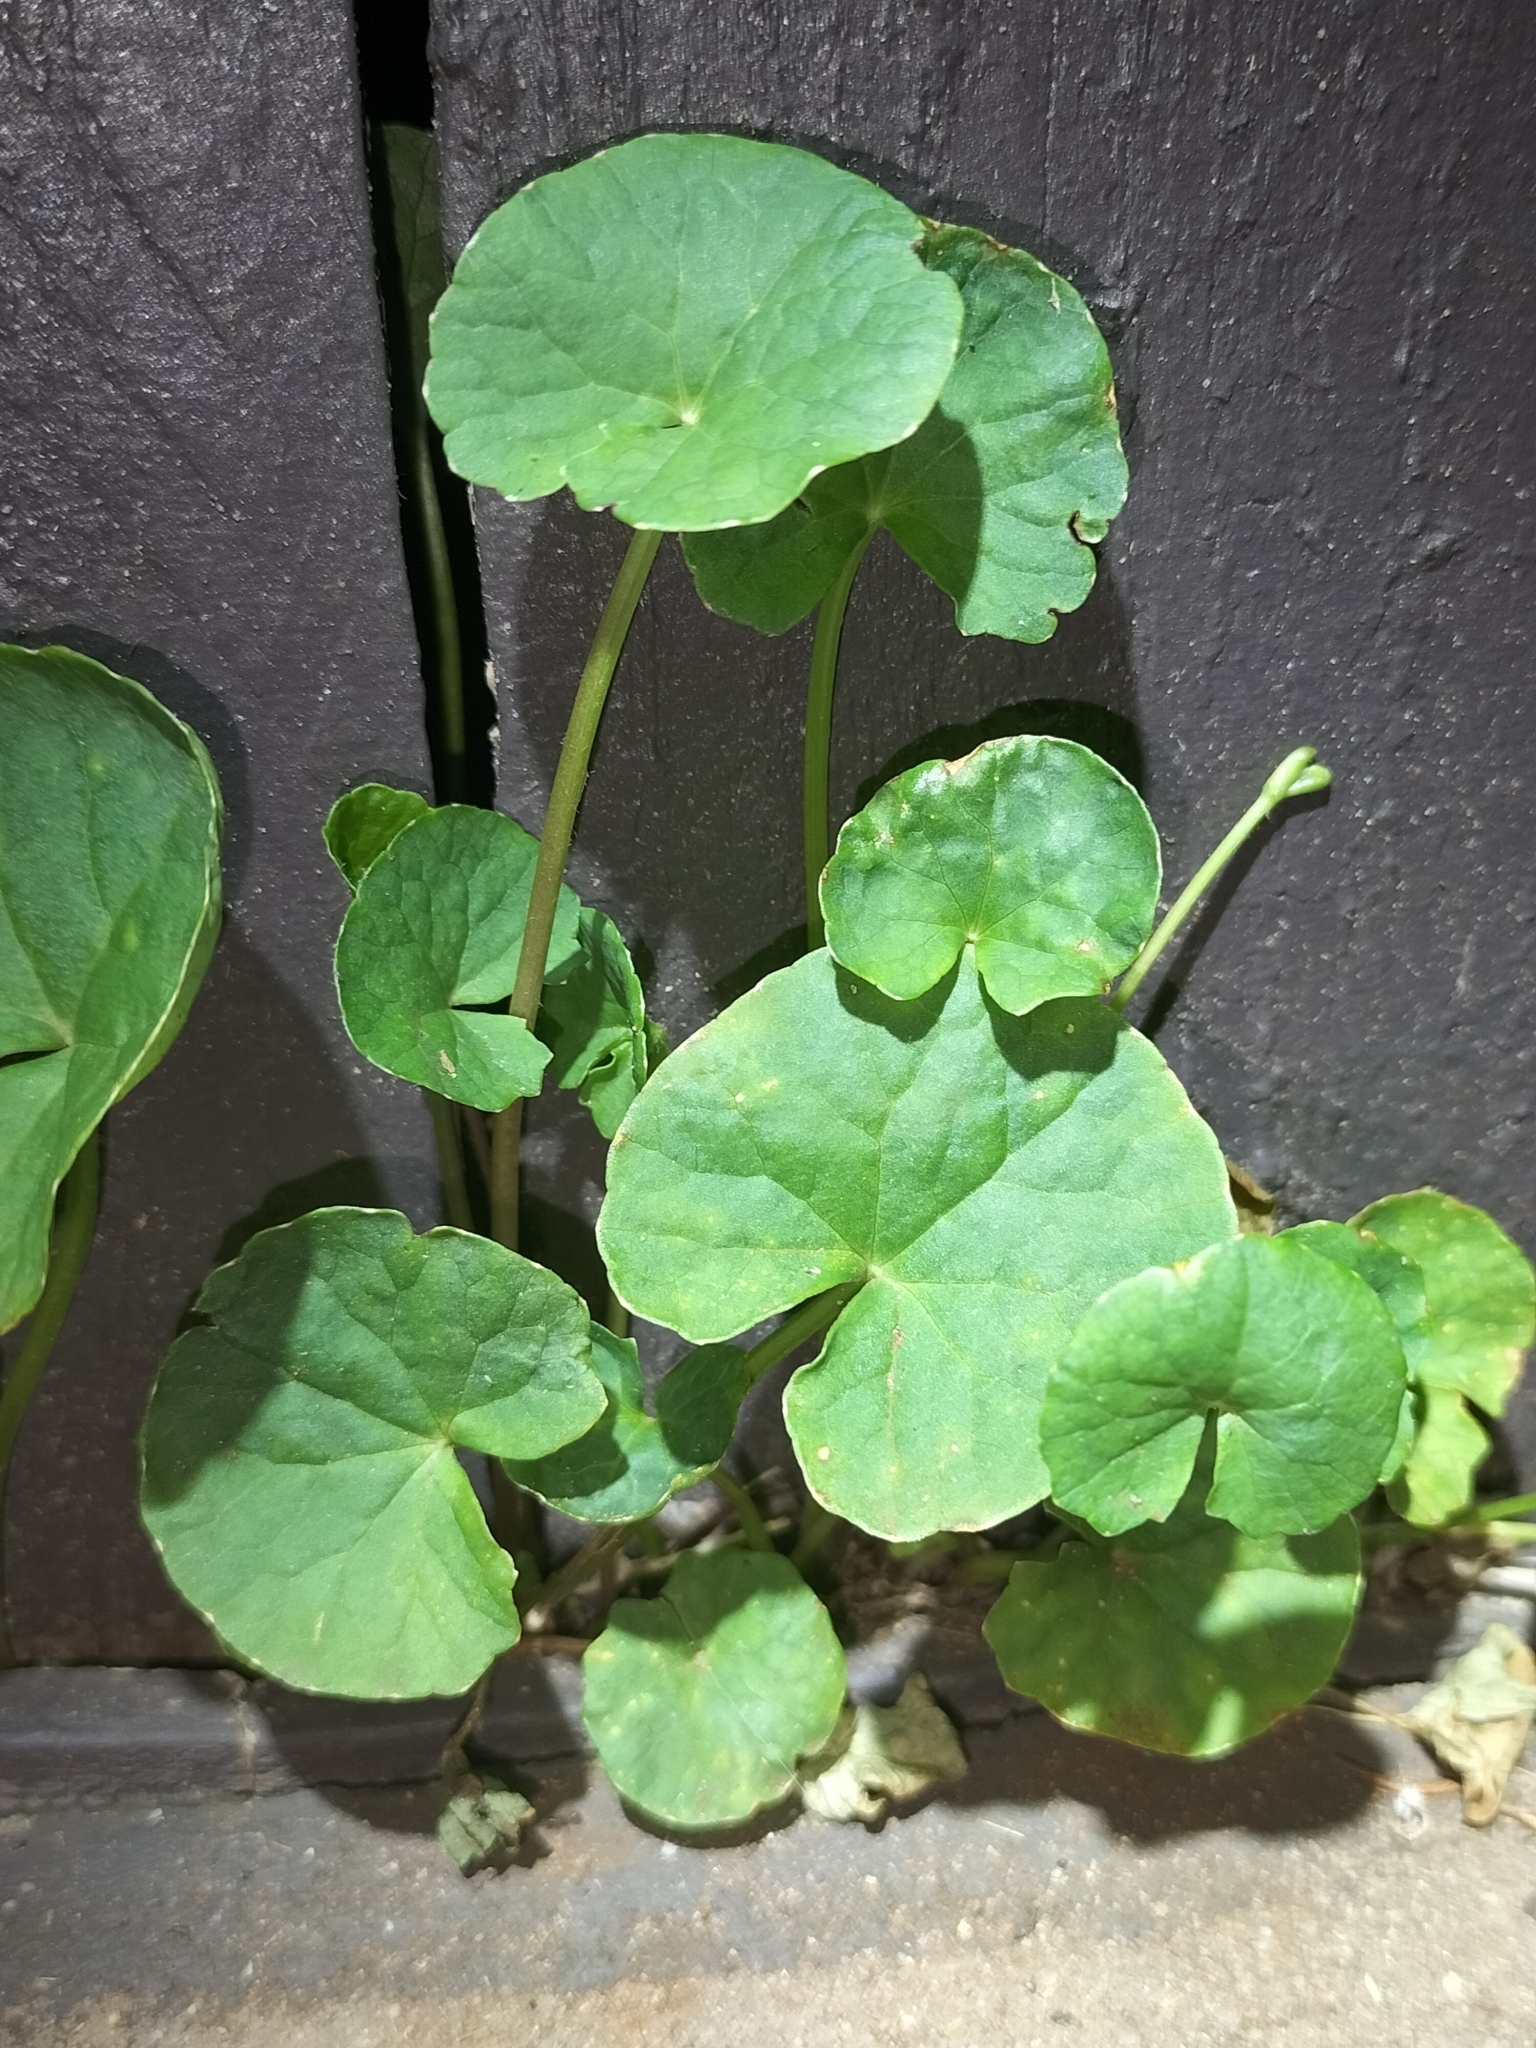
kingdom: Plantae
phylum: Tracheophyta
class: Magnoliopsida
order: Apiales
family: Apiaceae
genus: Centella
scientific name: Centella asiatica
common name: Spadeleaf
